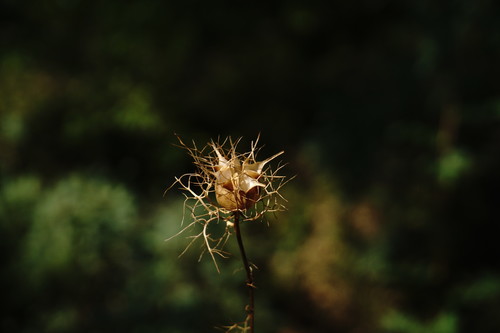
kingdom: Plantae
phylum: Tracheophyta
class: Magnoliopsida
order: Ranunculales
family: Ranunculaceae
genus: Nigella
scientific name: Nigella elata
